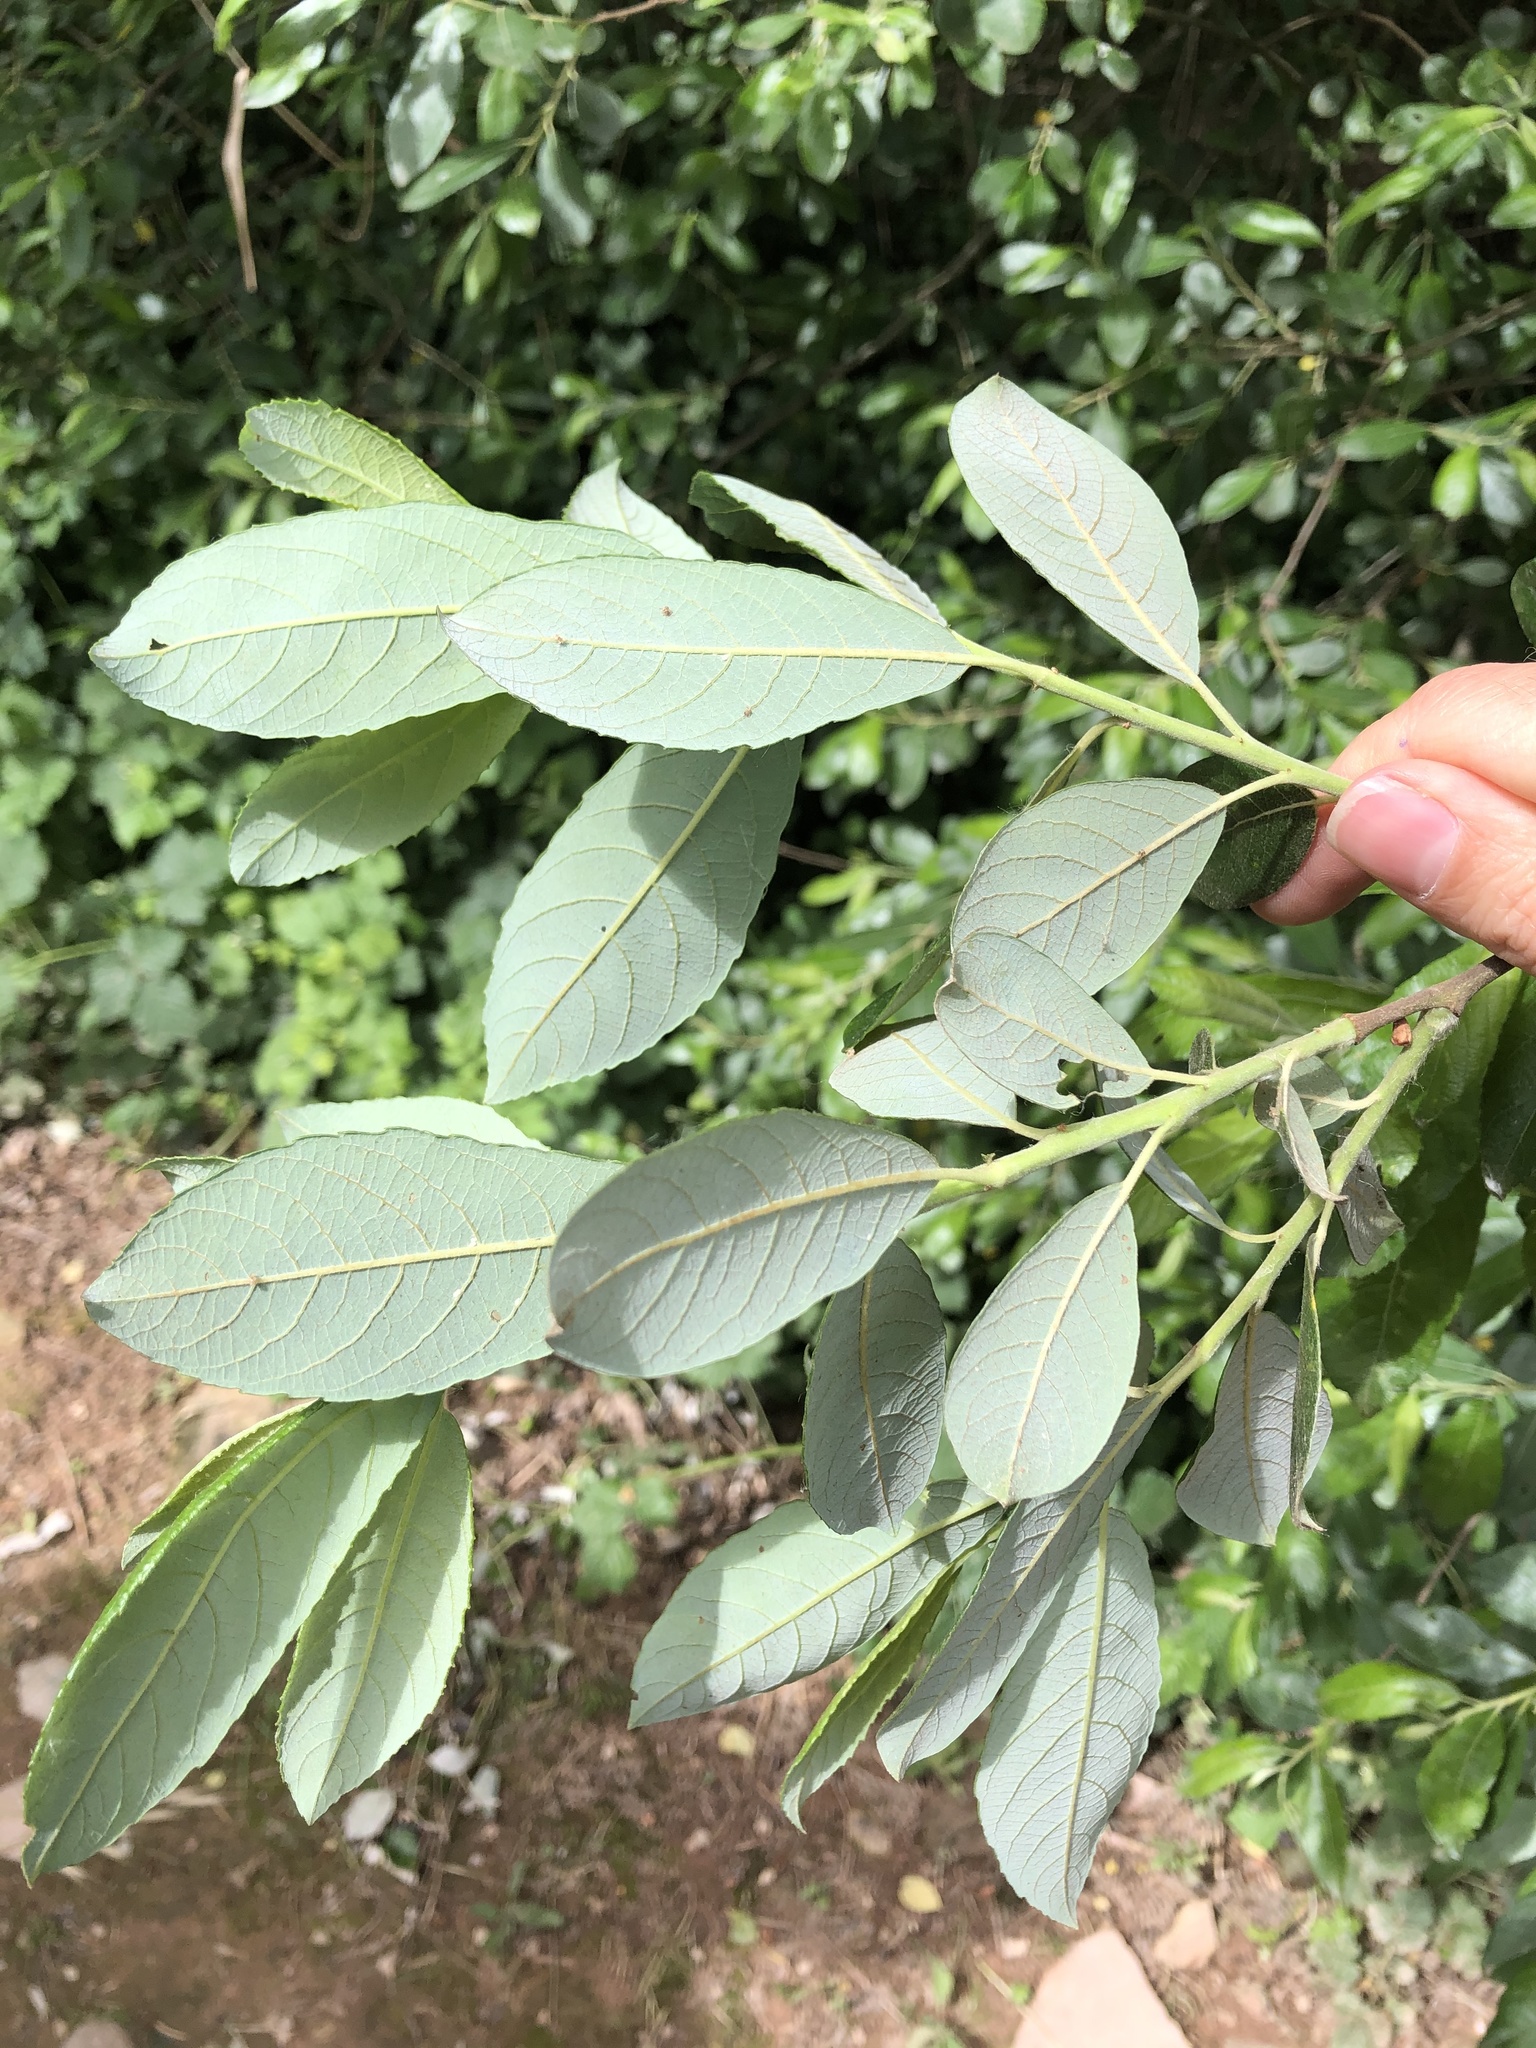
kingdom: Plantae
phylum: Tracheophyta
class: Magnoliopsida
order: Malpighiales
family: Salicaceae
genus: Salix
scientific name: Salix atrocinerea
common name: Rusty willow
